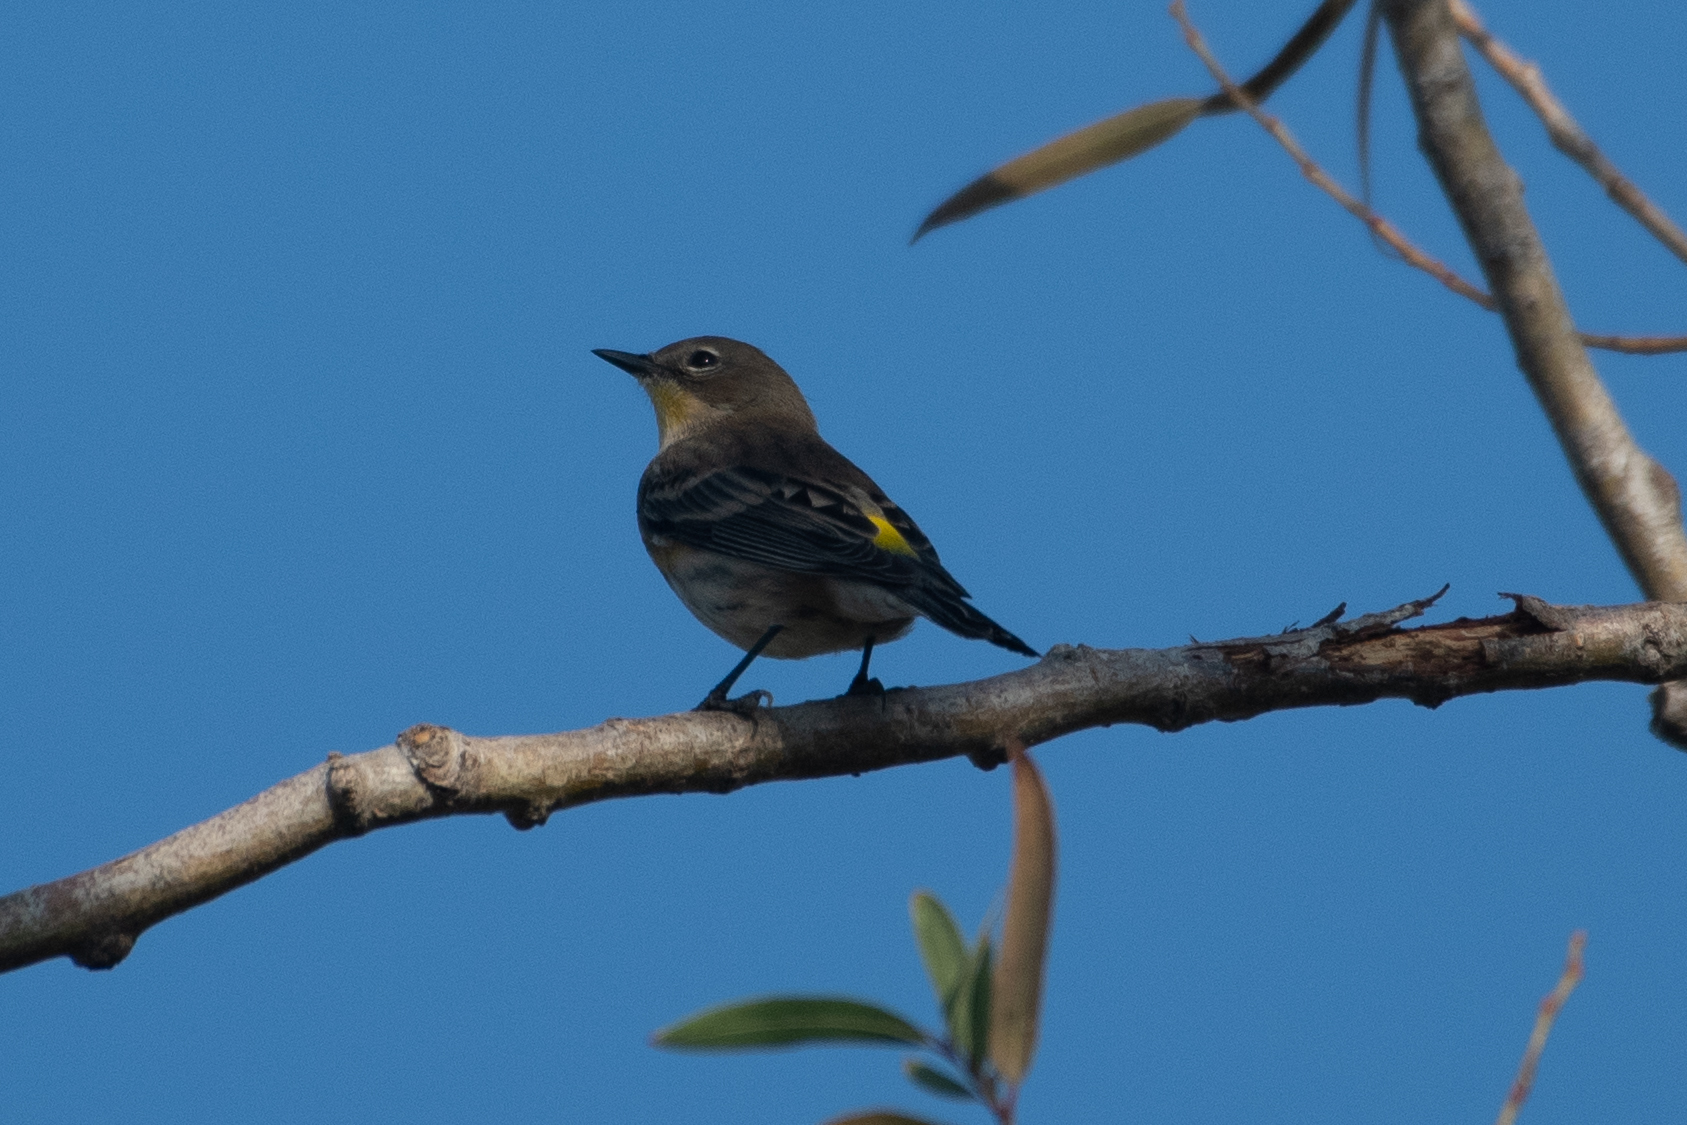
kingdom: Animalia
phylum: Chordata
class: Aves
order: Passeriformes
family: Parulidae
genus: Setophaga
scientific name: Setophaga coronata
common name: Myrtle warbler
